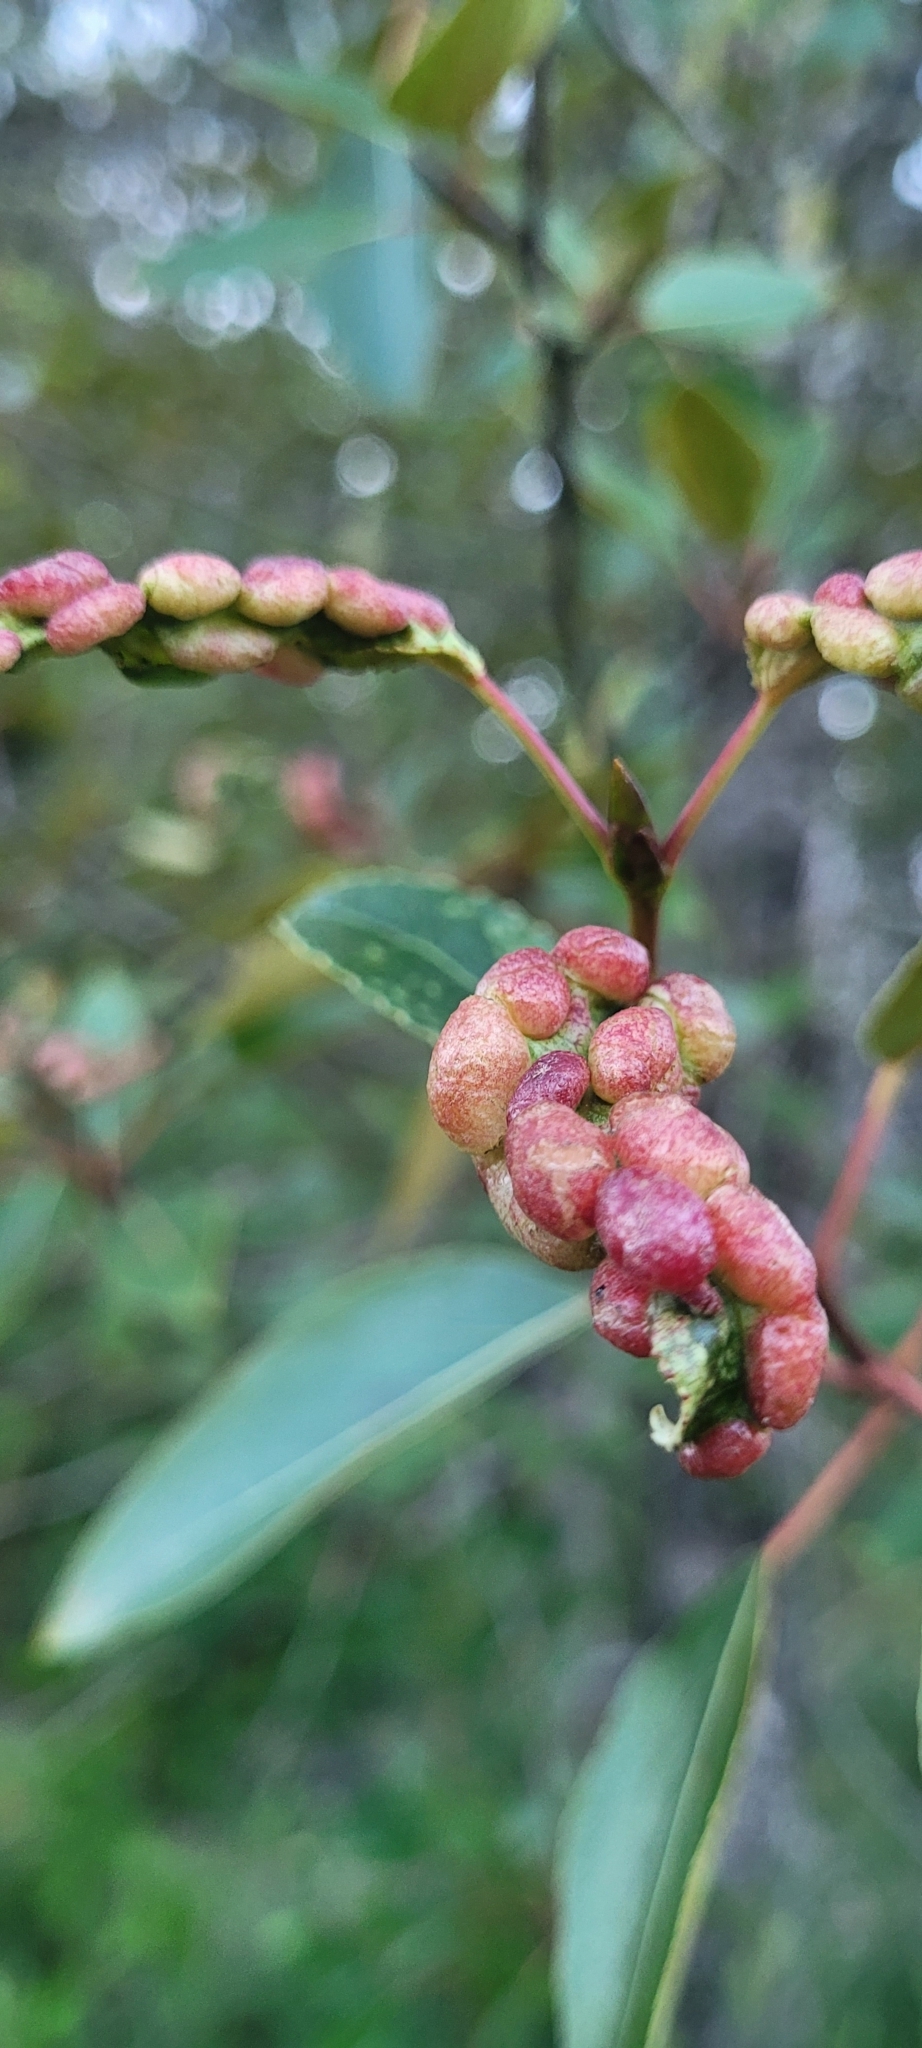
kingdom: Animalia
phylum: Arthropoda
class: Insecta
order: Hemiptera
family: Aphididae
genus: Thecabius
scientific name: Thecabius populimonilis
